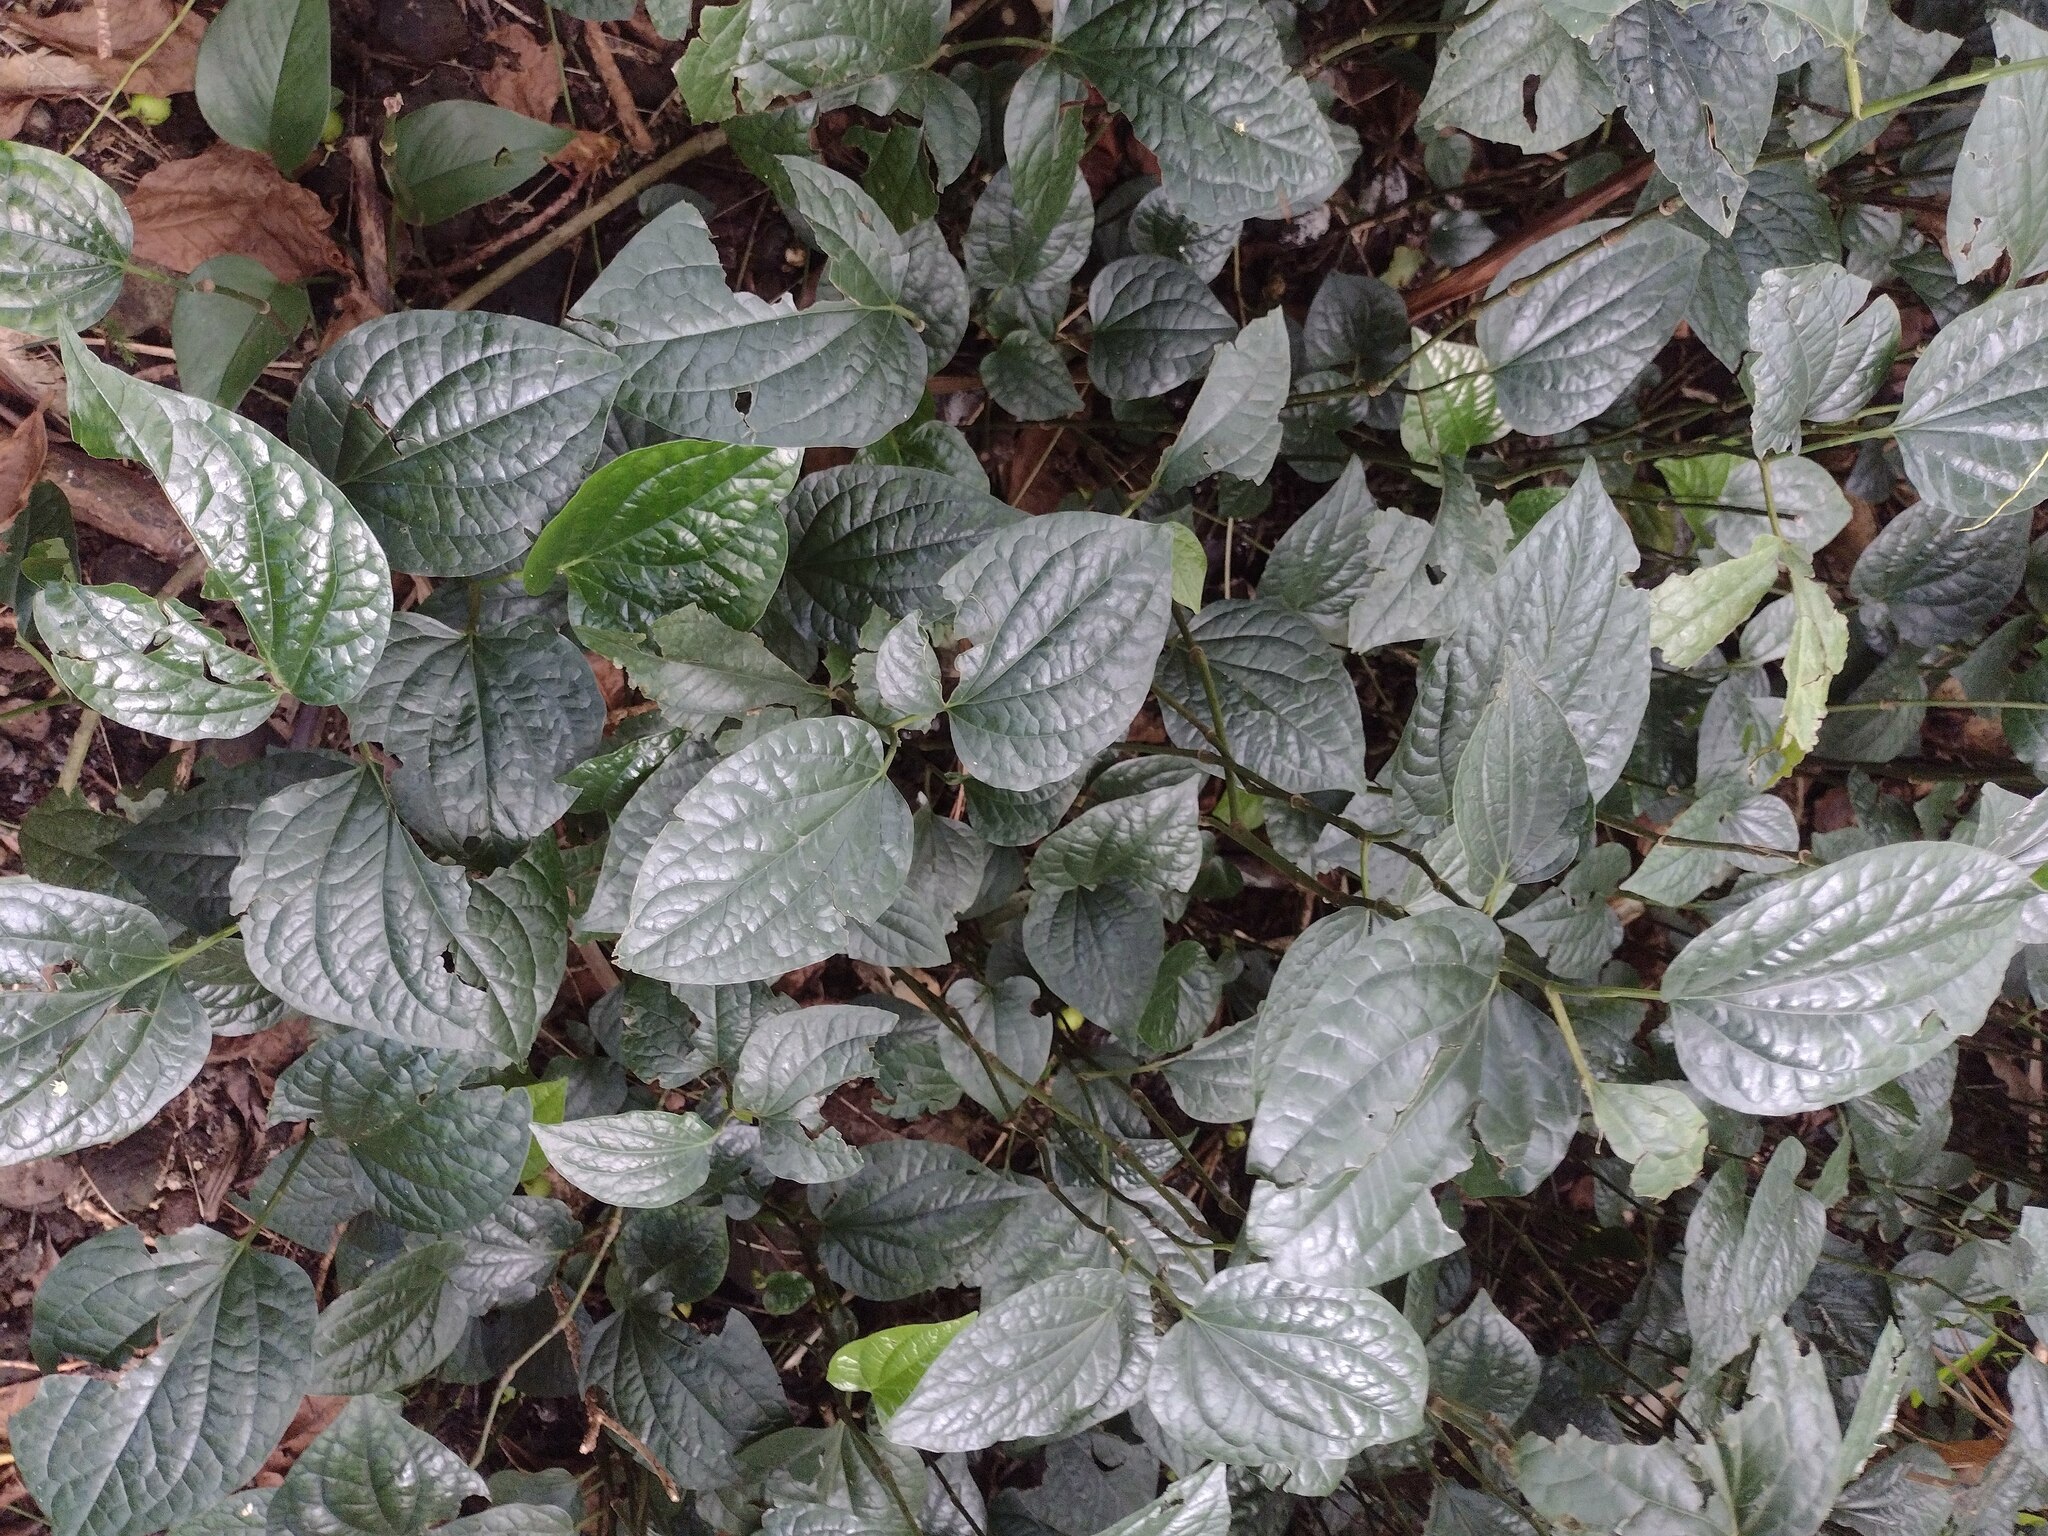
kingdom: Plantae
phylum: Tracheophyta
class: Magnoliopsida
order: Piperales
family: Piperaceae
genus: Piper
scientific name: Piper sarmentosum
